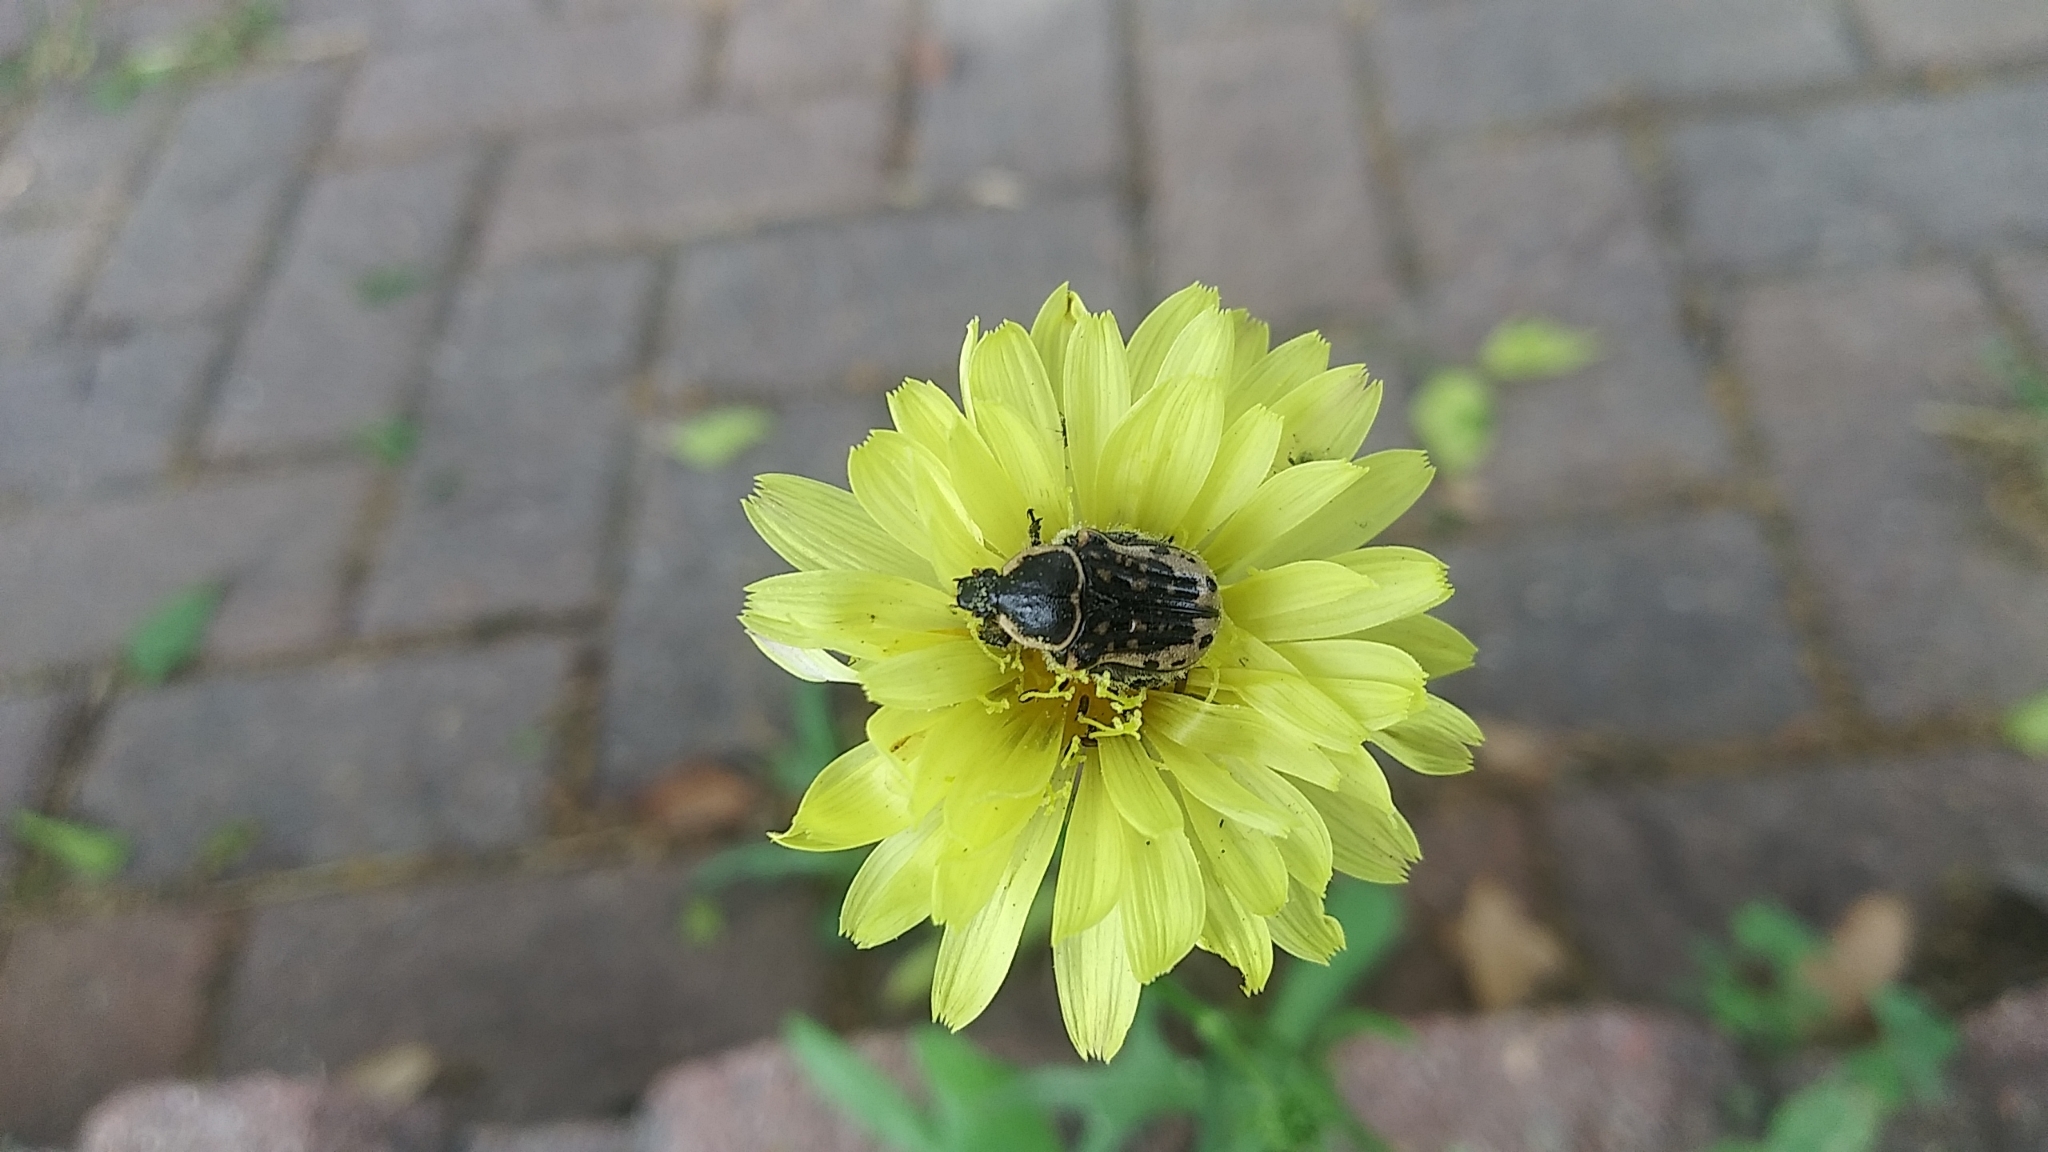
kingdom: Animalia
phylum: Arthropoda
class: Insecta
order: Coleoptera
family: Scarabaeidae
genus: Euphoria
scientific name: Euphoria kernii
